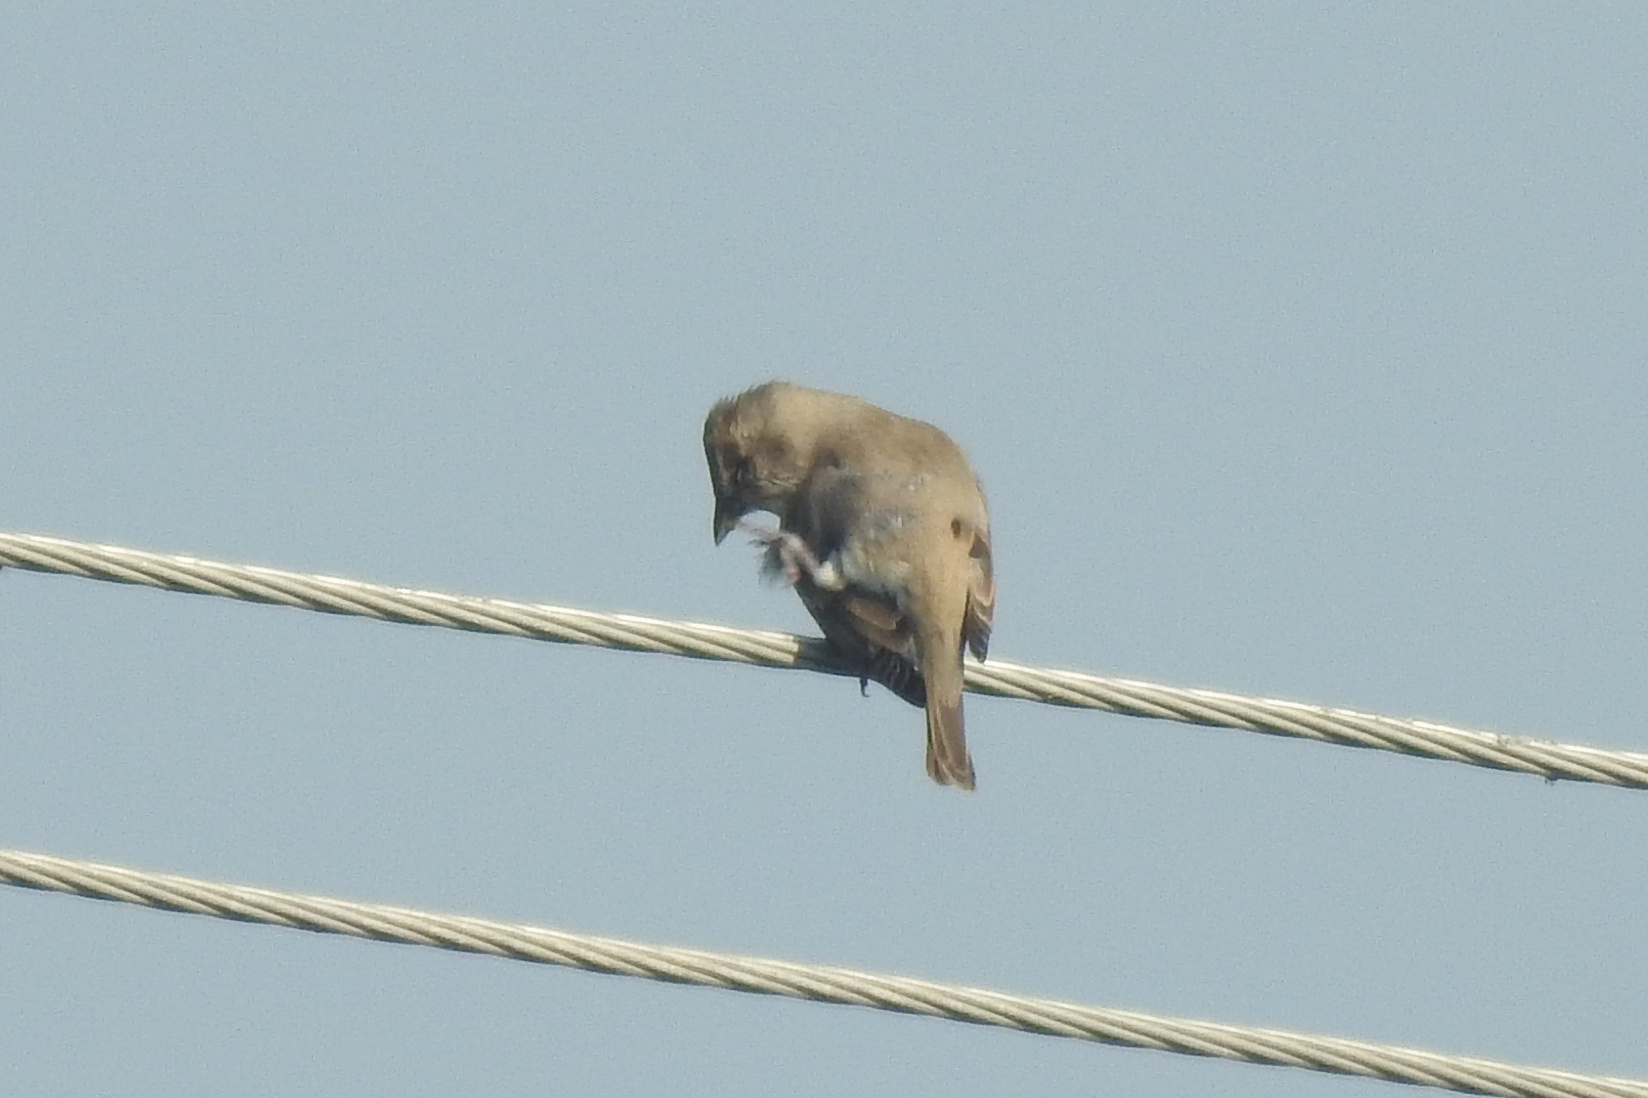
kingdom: Animalia
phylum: Chordata
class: Aves
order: Passeriformes
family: Passeridae
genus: Gymnoris
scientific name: Gymnoris xanthocollis
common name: Yellow-throated sparrow
